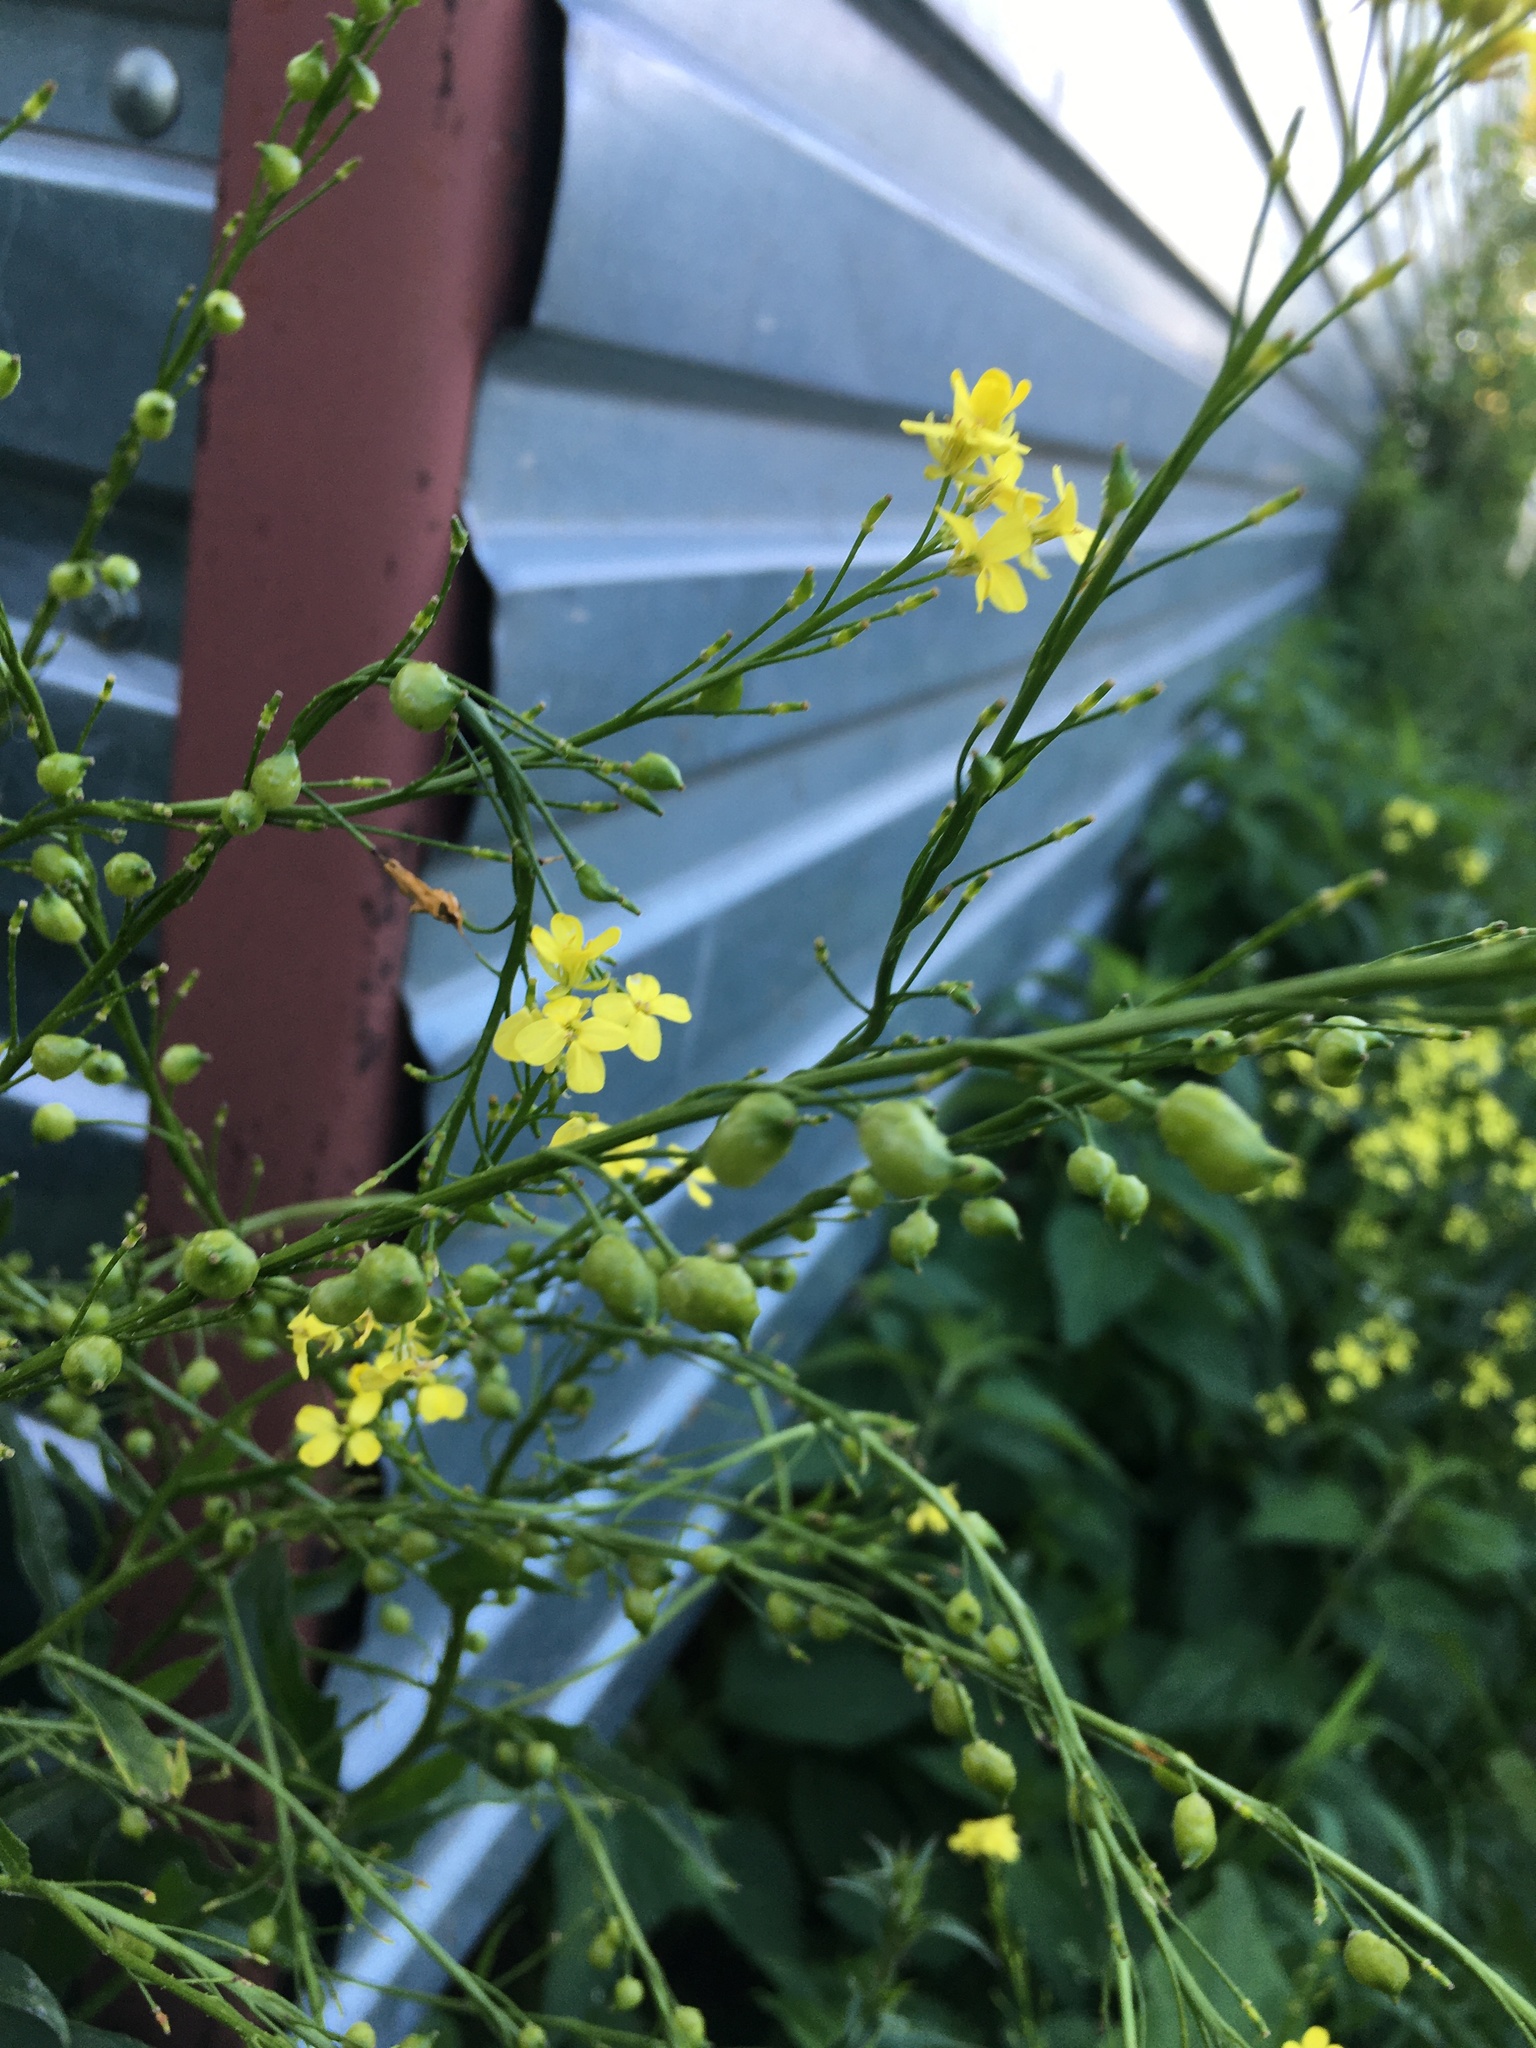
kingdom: Plantae
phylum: Tracheophyta
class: Magnoliopsida
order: Brassicales
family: Brassicaceae
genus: Bunias
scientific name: Bunias orientalis
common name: Warty-cabbage
